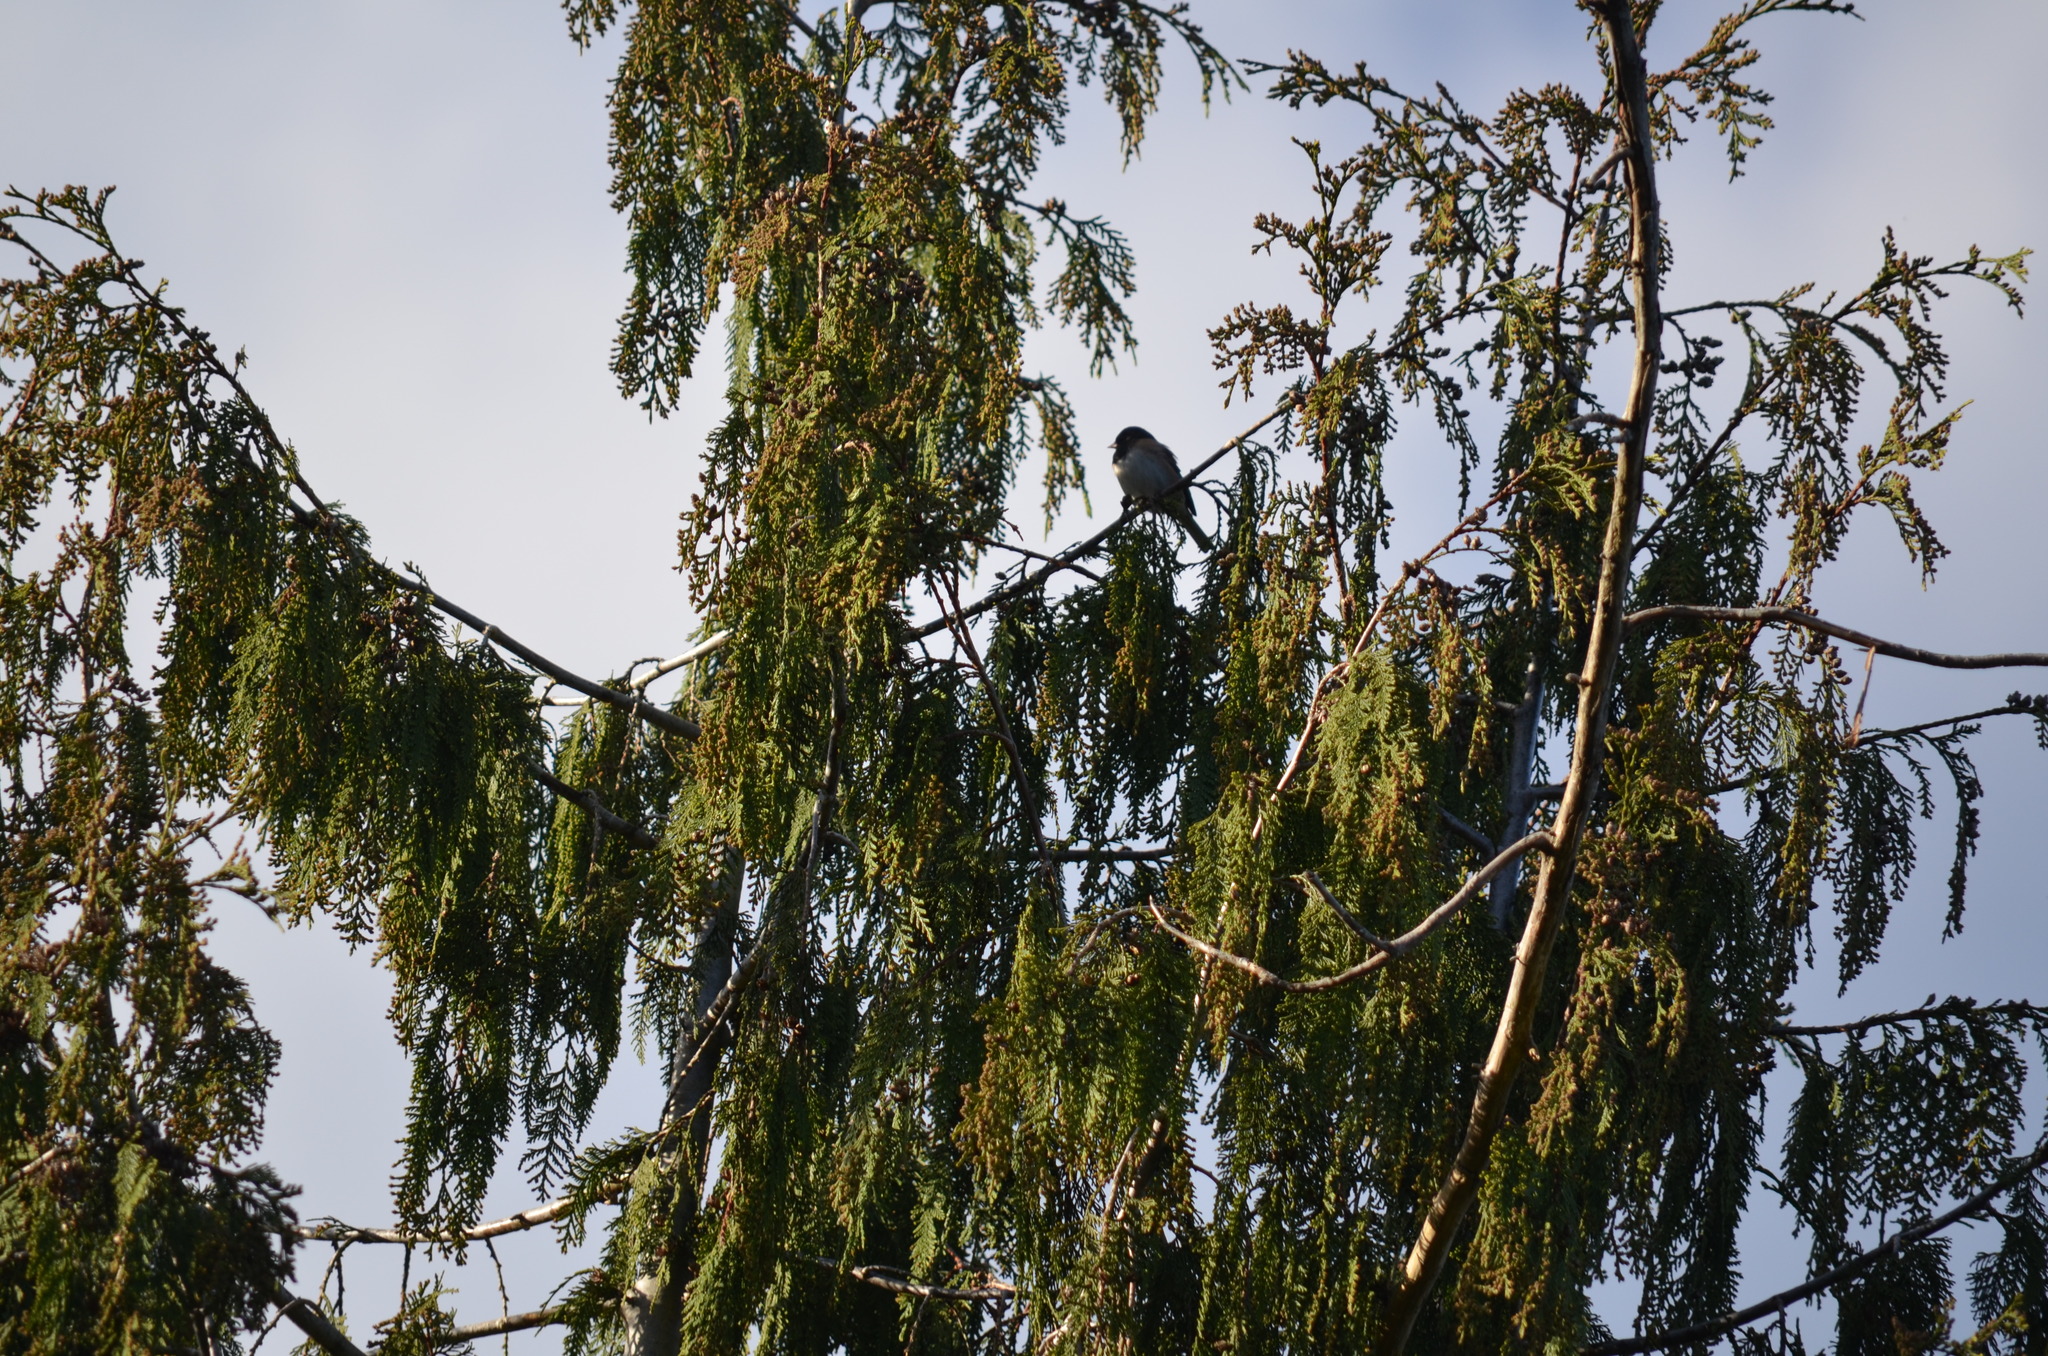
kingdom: Animalia
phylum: Chordata
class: Aves
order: Passeriformes
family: Passerellidae
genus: Junco
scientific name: Junco hyemalis
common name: Dark-eyed junco
